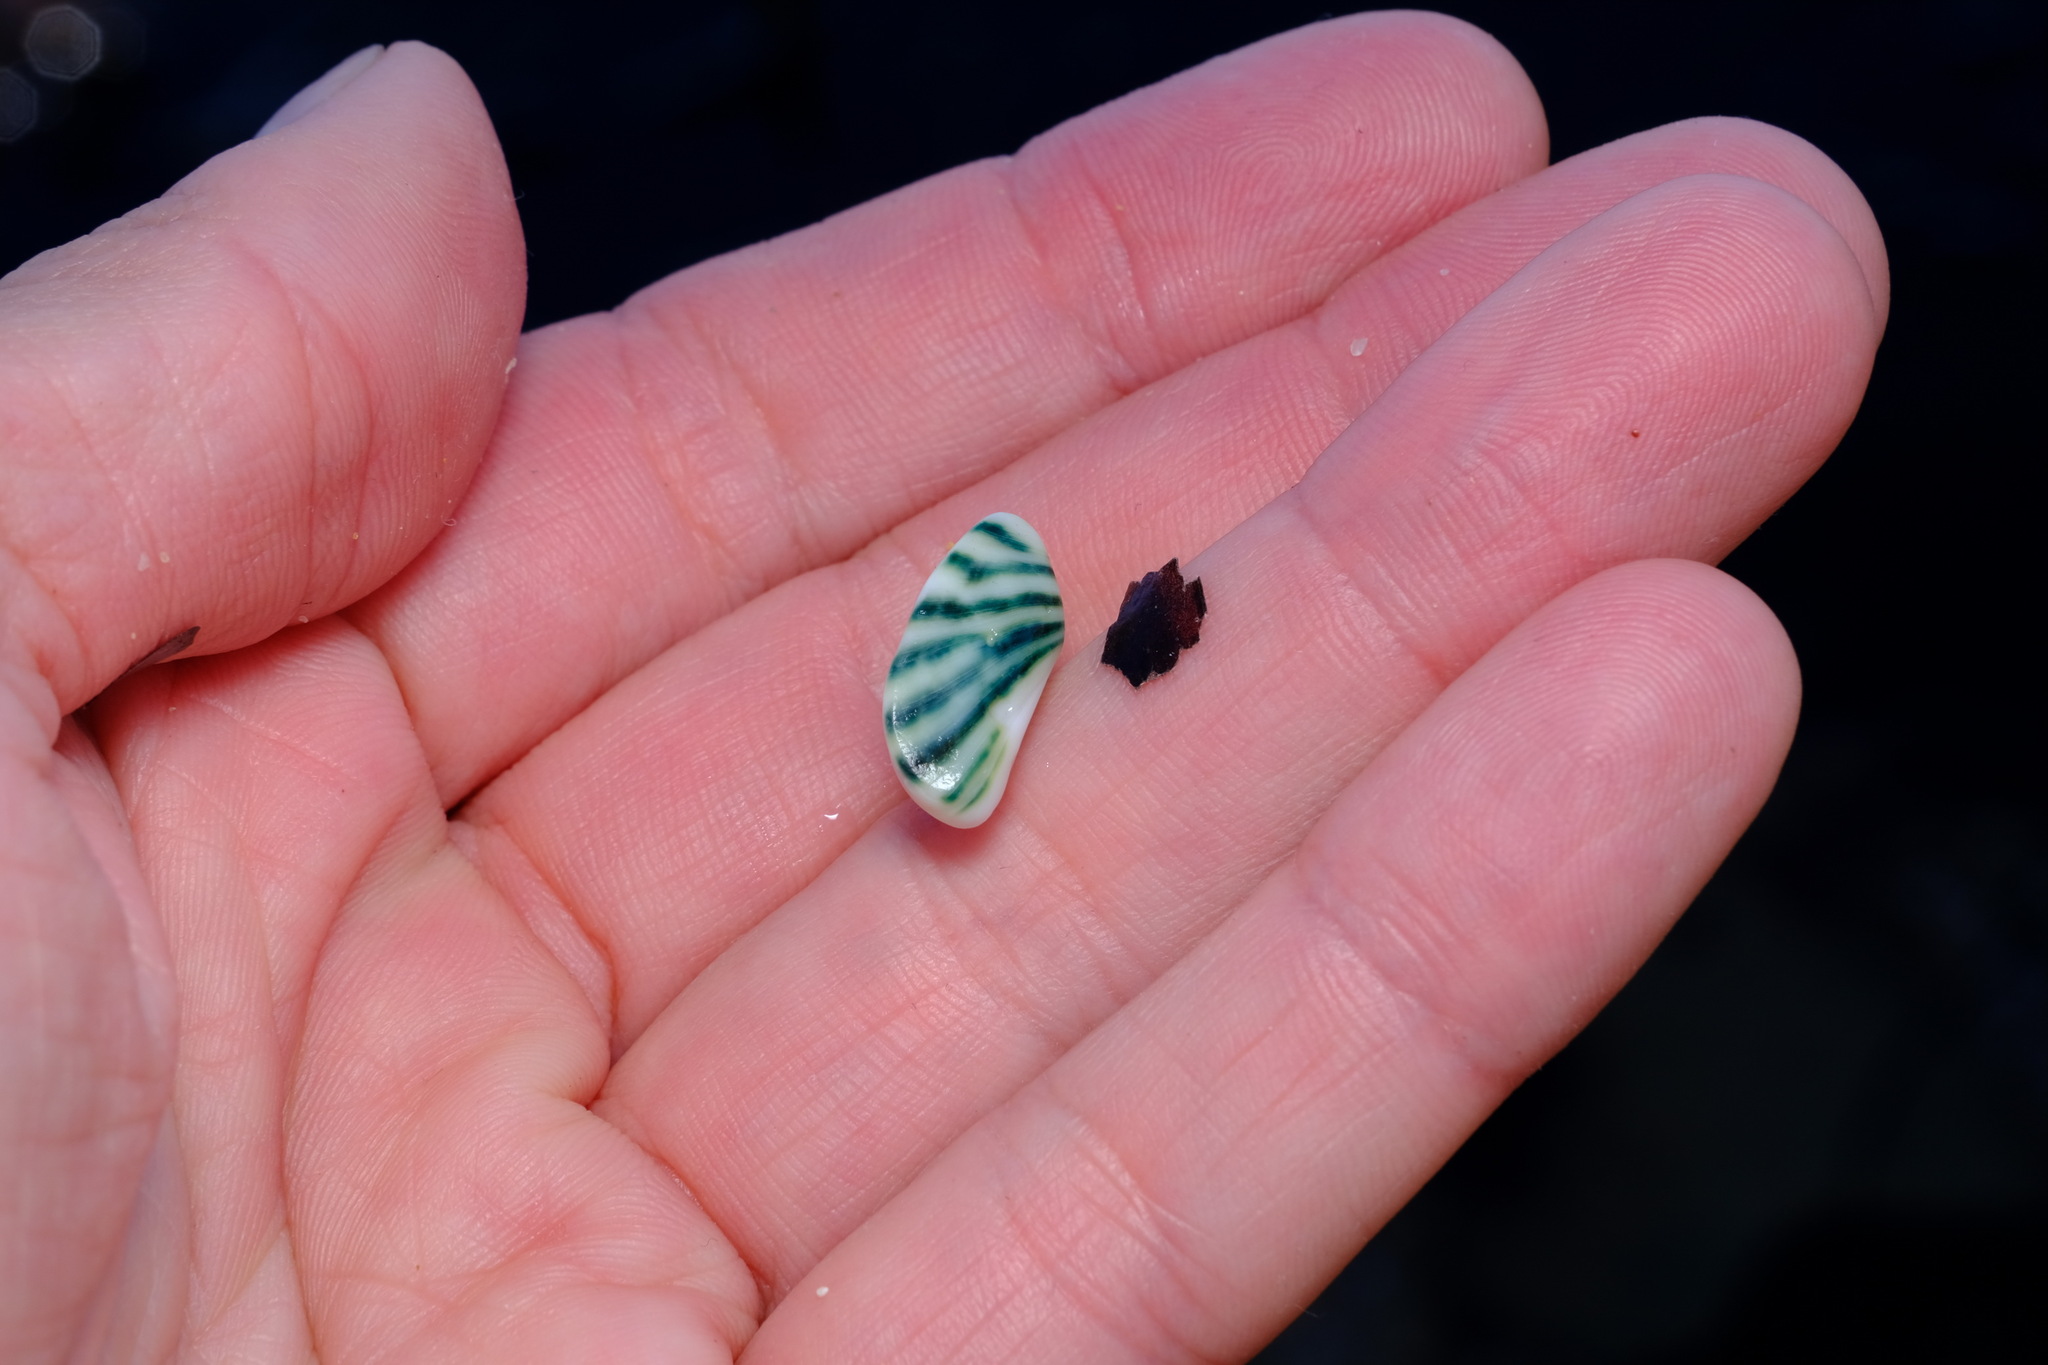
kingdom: Animalia
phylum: Mollusca
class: Gastropoda
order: Trochida
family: Turbinidae
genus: Lunella
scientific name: Lunella undulata
